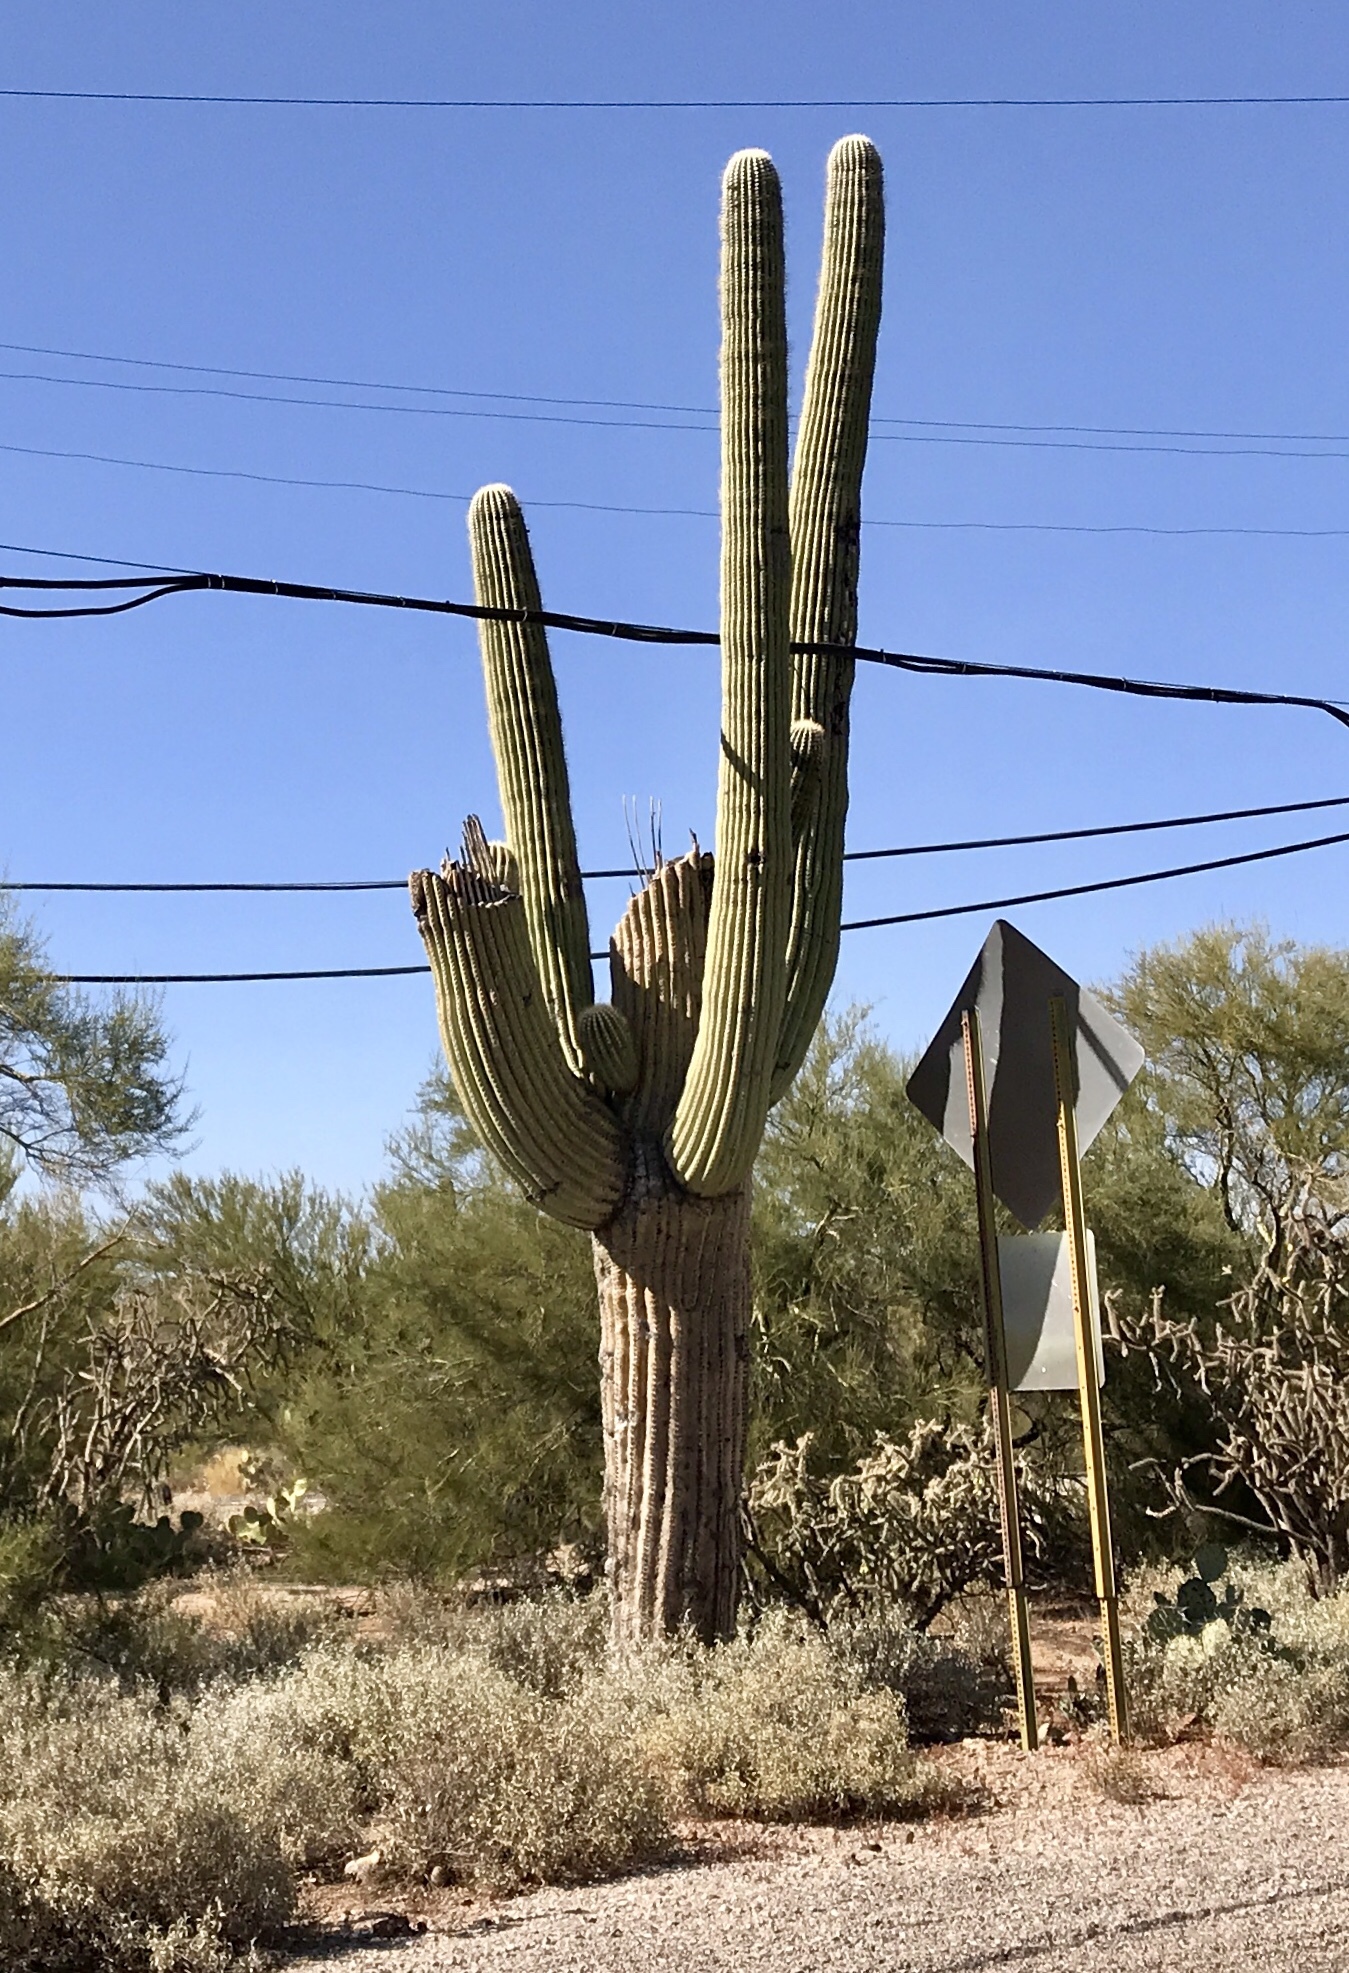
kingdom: Plantae
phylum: Tracheophyta
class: Magnoliopsida
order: Caryophyllales
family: Cactaceae
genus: Carnegiea
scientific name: Carnegiea gigantea
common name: Saguaro
